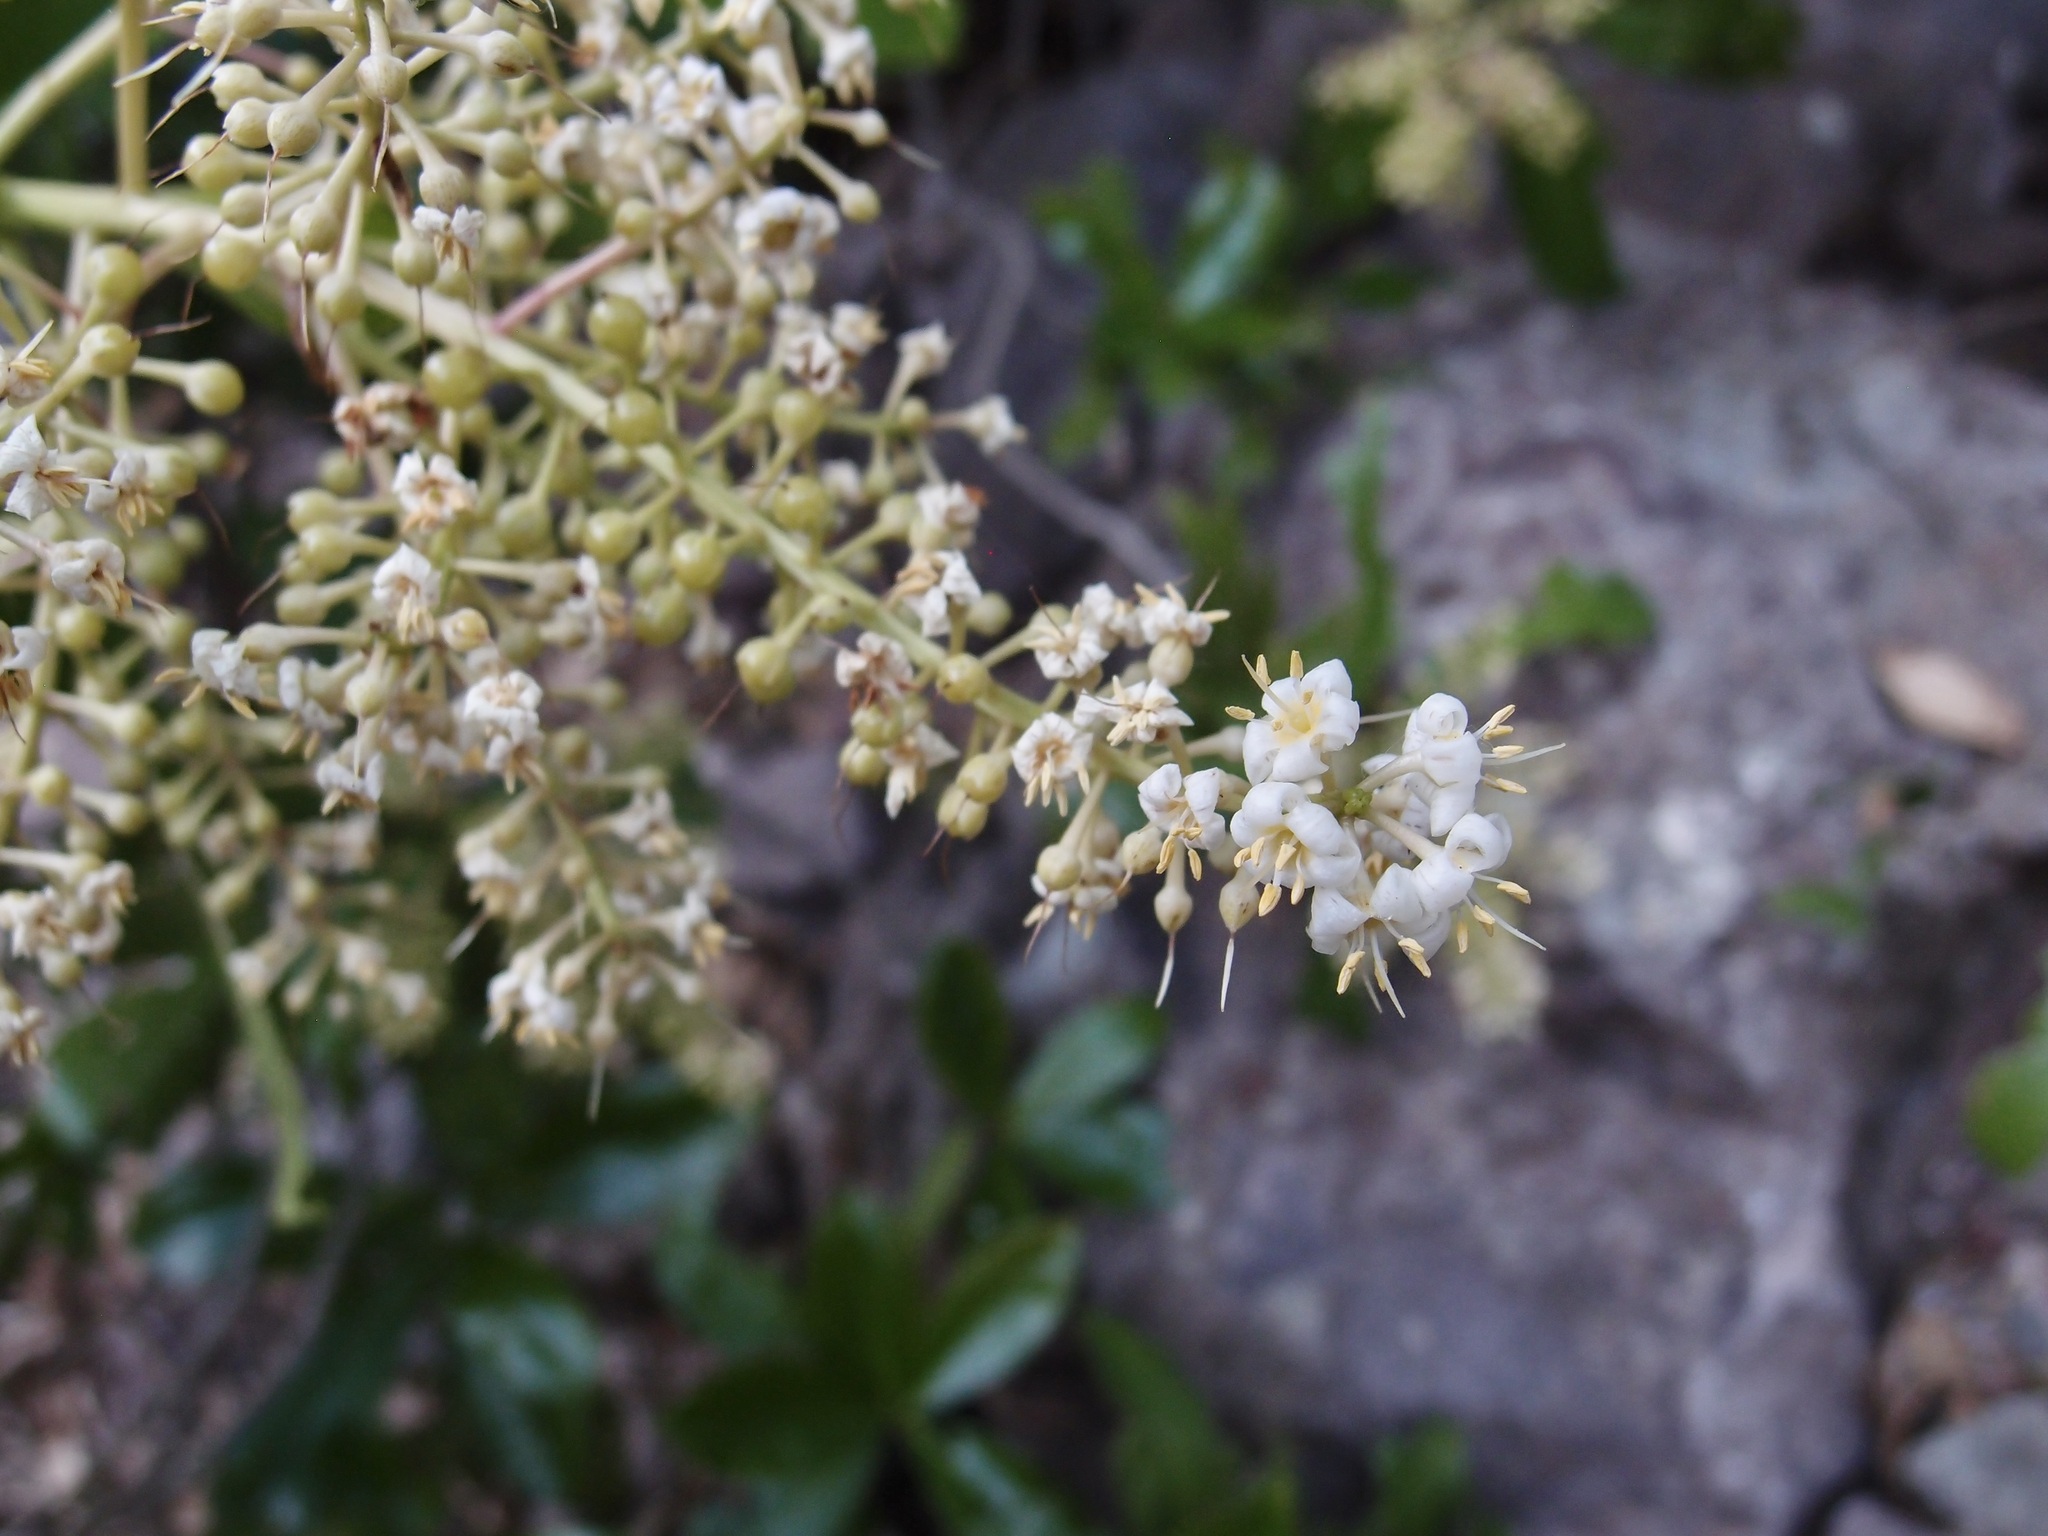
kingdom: Plantae
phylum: Tracheophyta
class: Magnoliopsida
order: Ericales
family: Primulaceae
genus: Ardisia
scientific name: Ardisia revoluta
